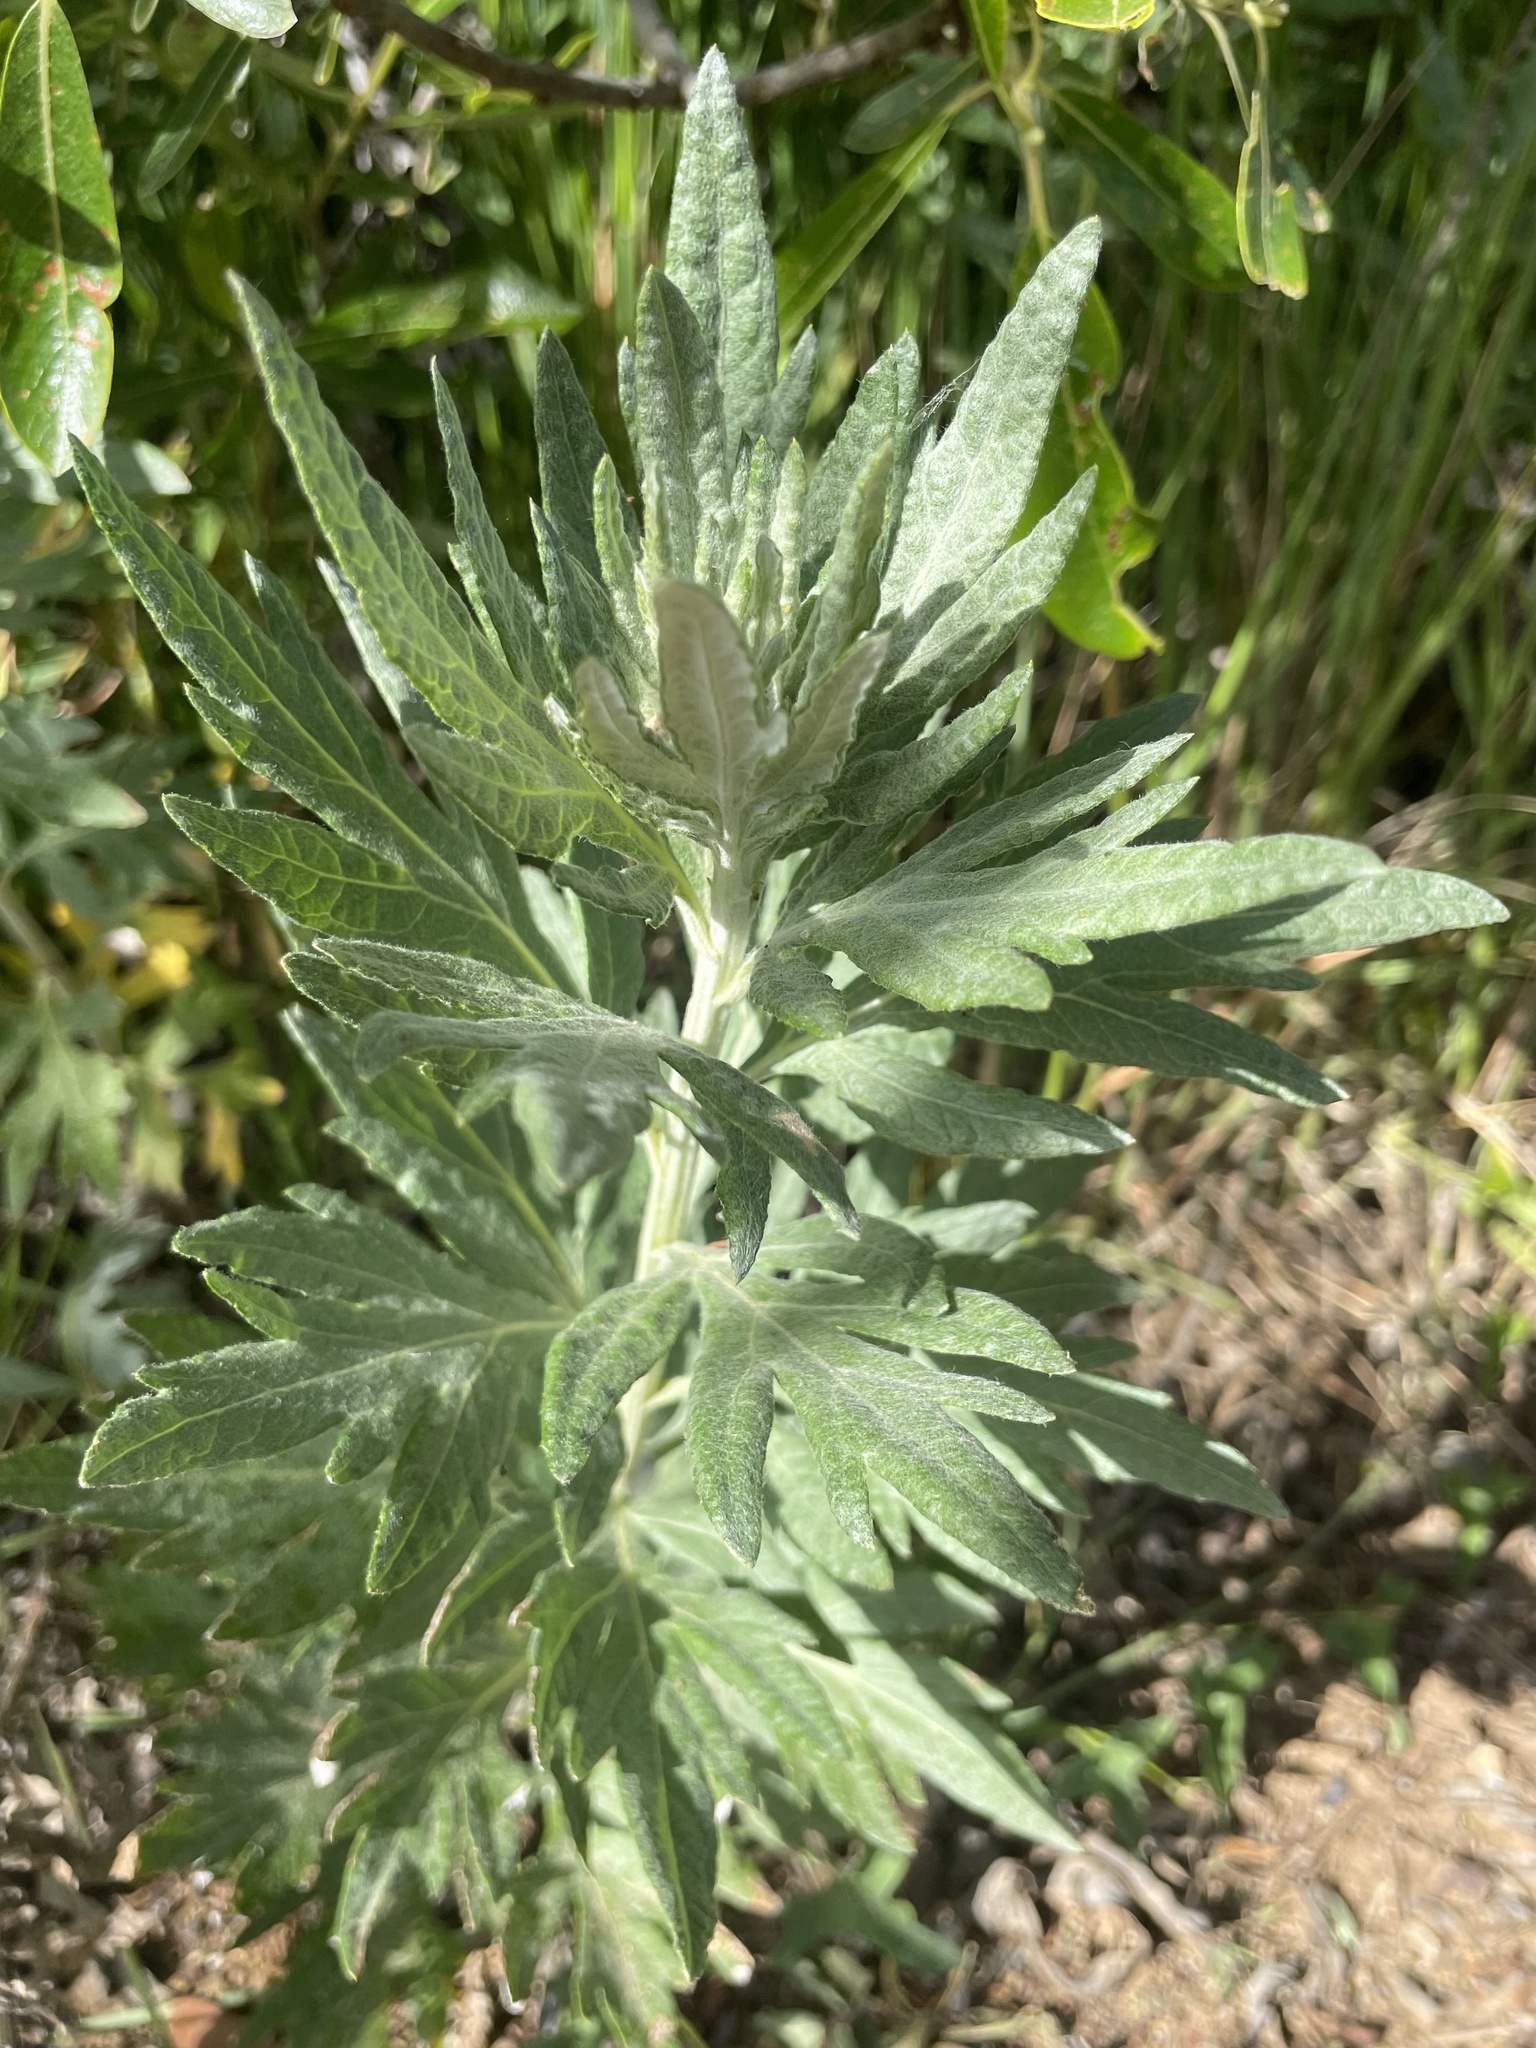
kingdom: Plantae
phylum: Tracheophyta
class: Magnoliopsida
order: Asterales
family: Asteraceae
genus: Artemisia
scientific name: Artemisia douglasiana
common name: Northwest mugwort
